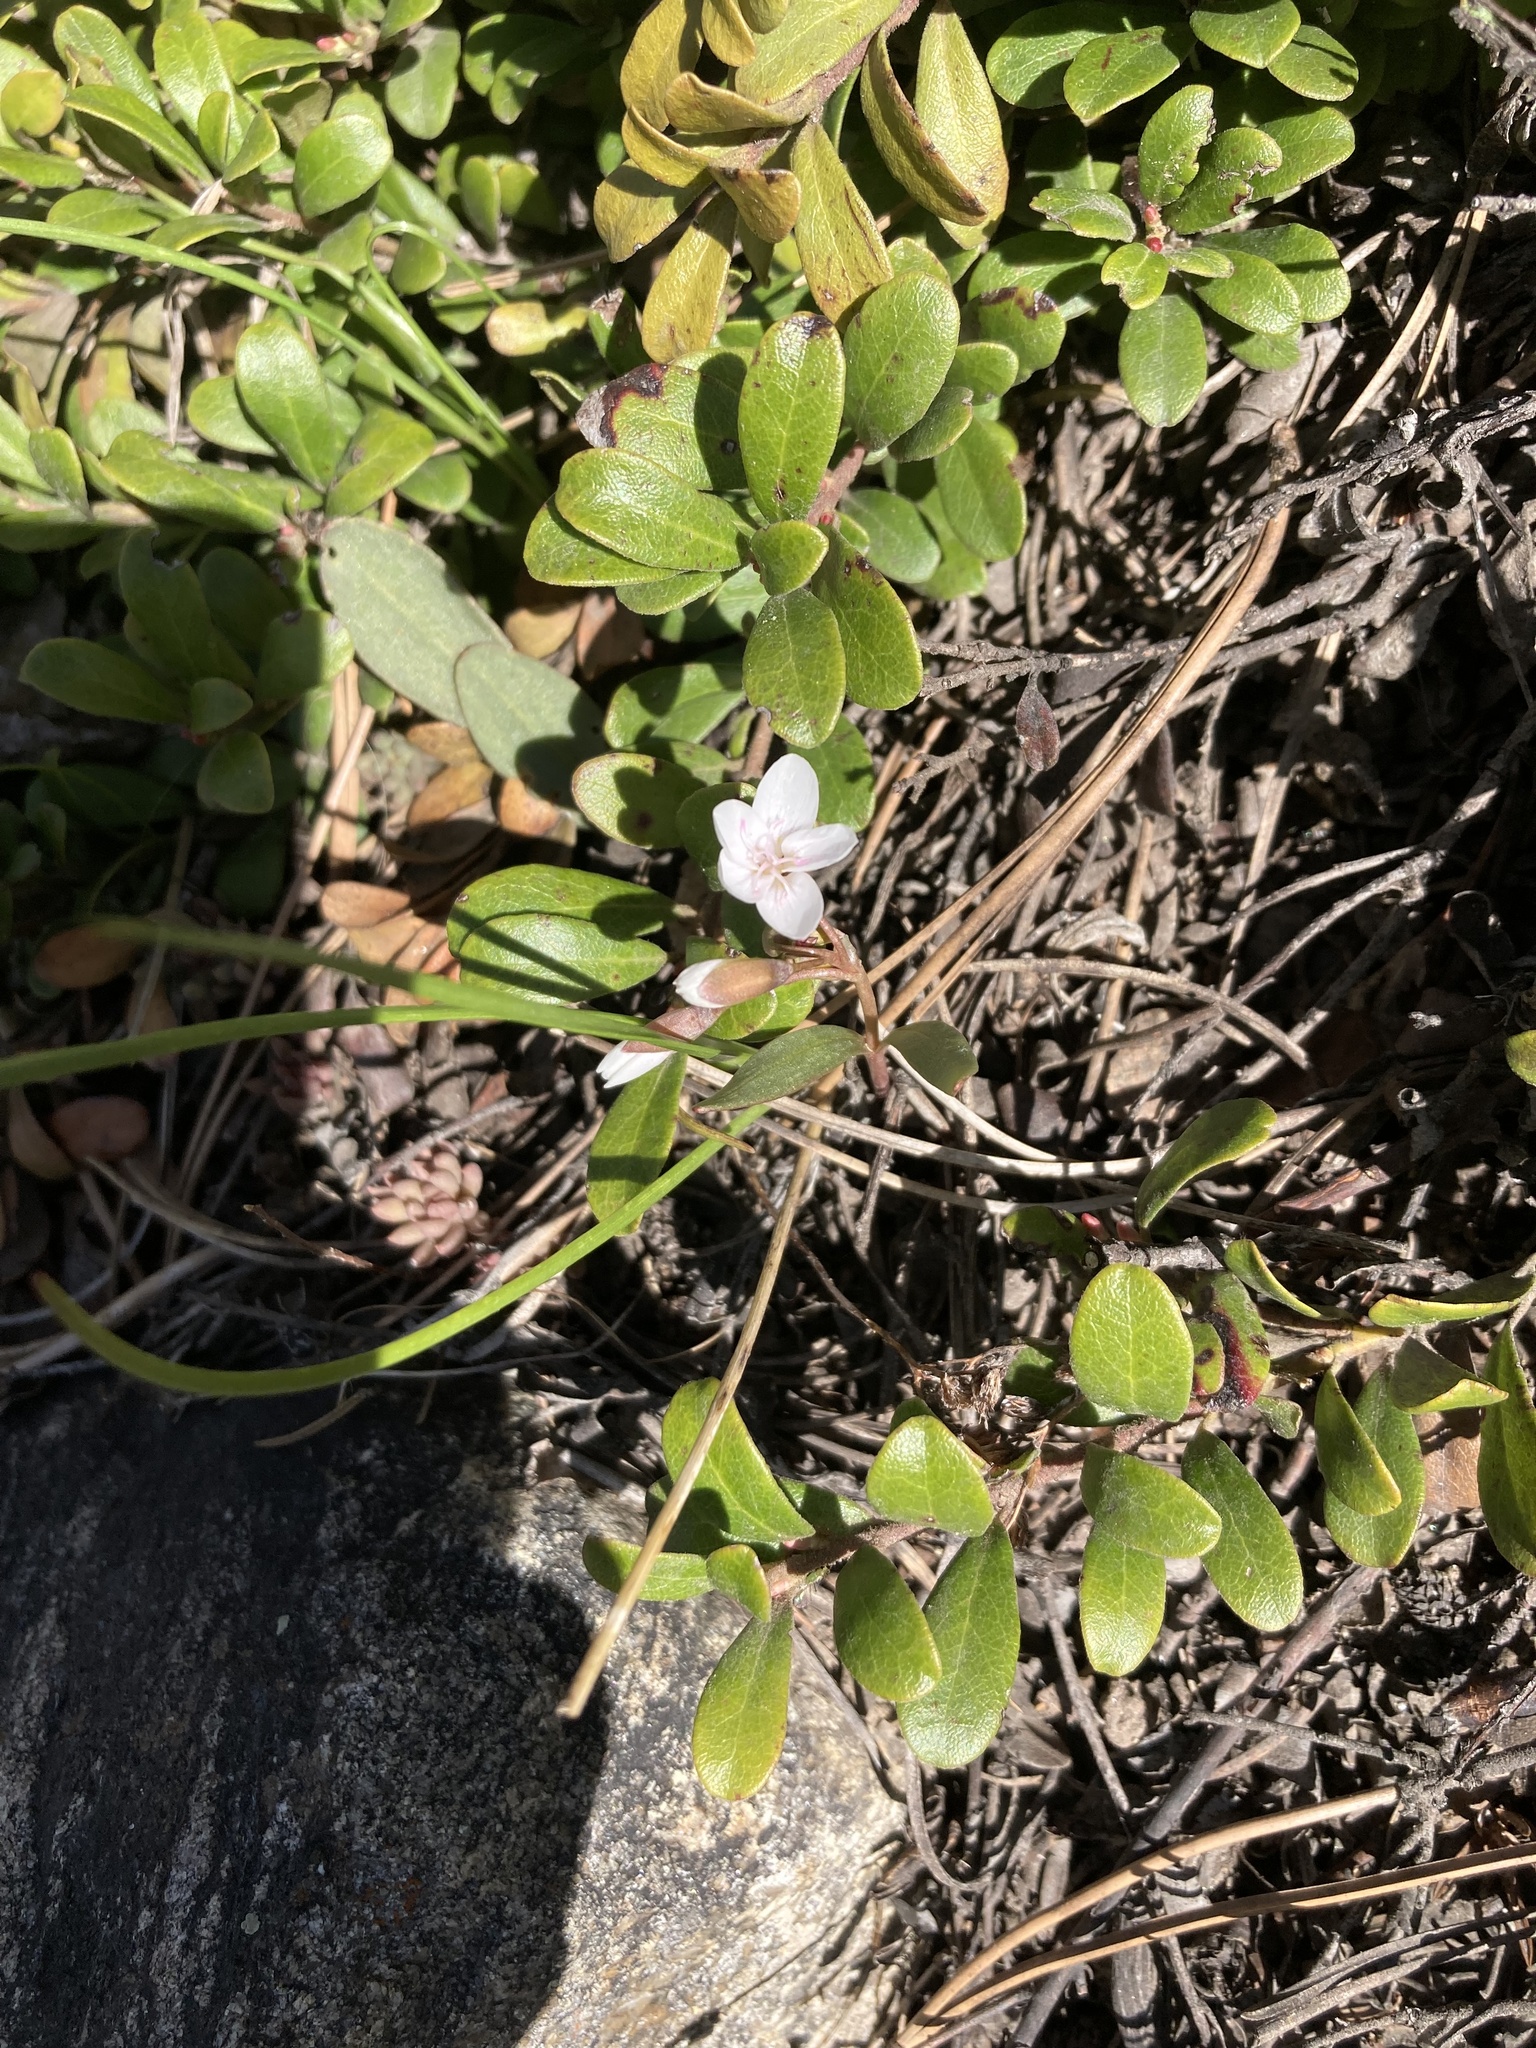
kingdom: Plantae
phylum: Tracheophyta
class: Magnoliopsida
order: Ericales
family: Ericaceae
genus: Arctostaphylos
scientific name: Arctostaphylos uva-ursi
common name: Bearberry
